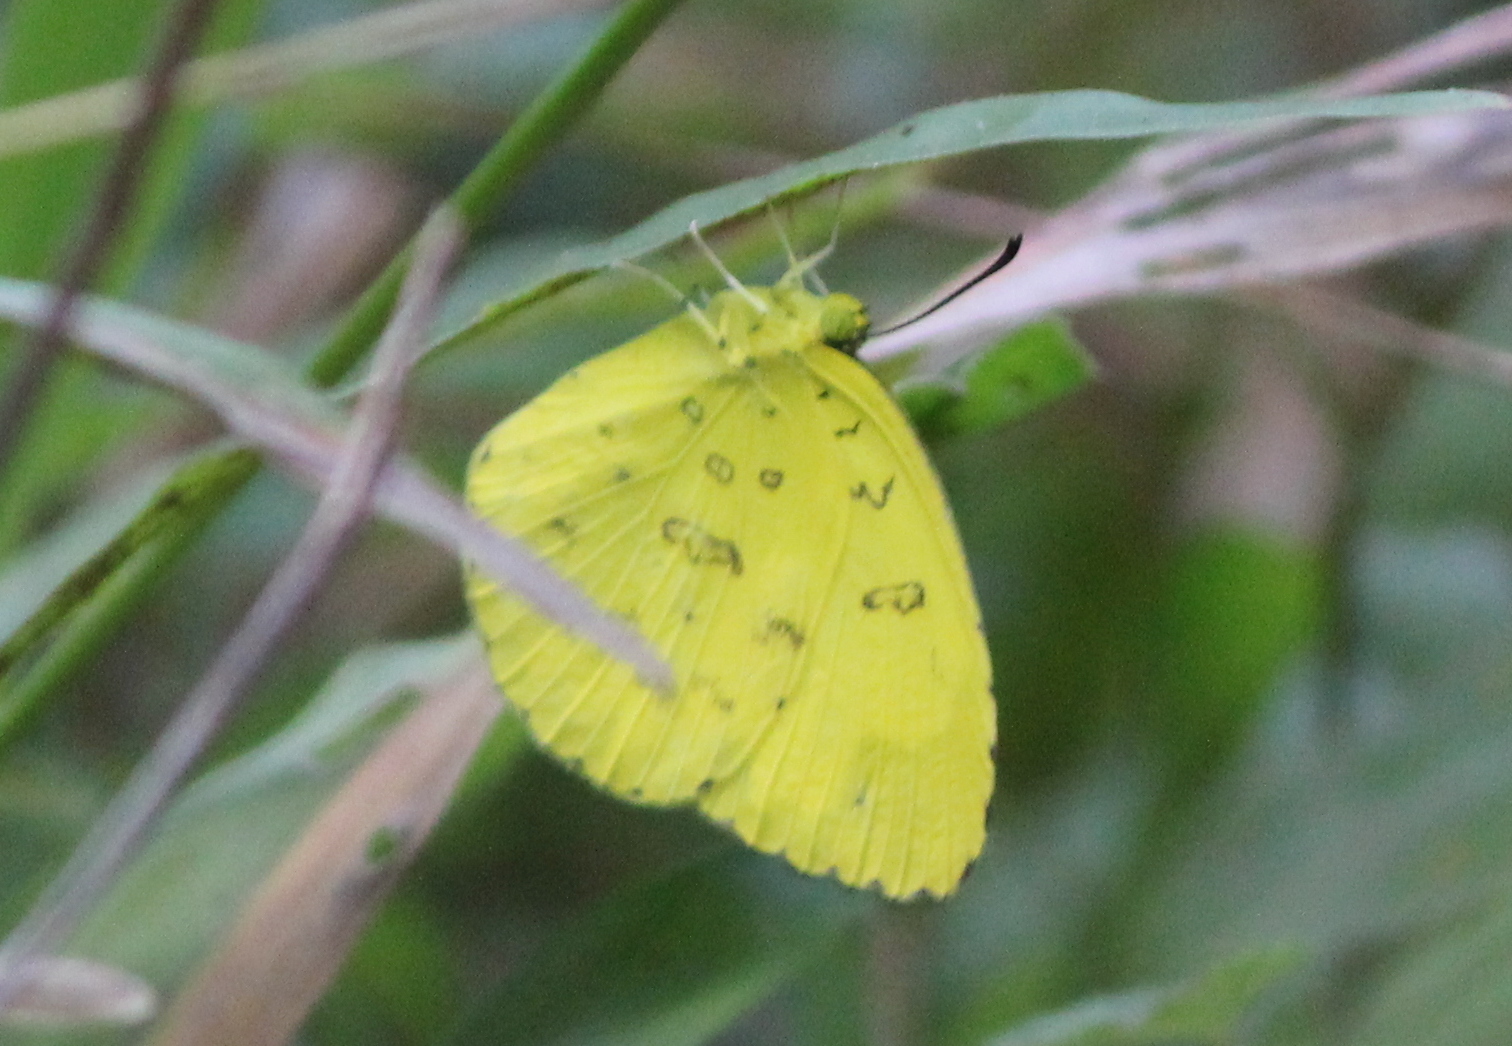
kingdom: Animalia
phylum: Arthropoda
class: Insecta
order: Lepidoptera
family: Pieridae
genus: Eurema
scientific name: Eurema blanda
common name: Three-spot grass yellow
